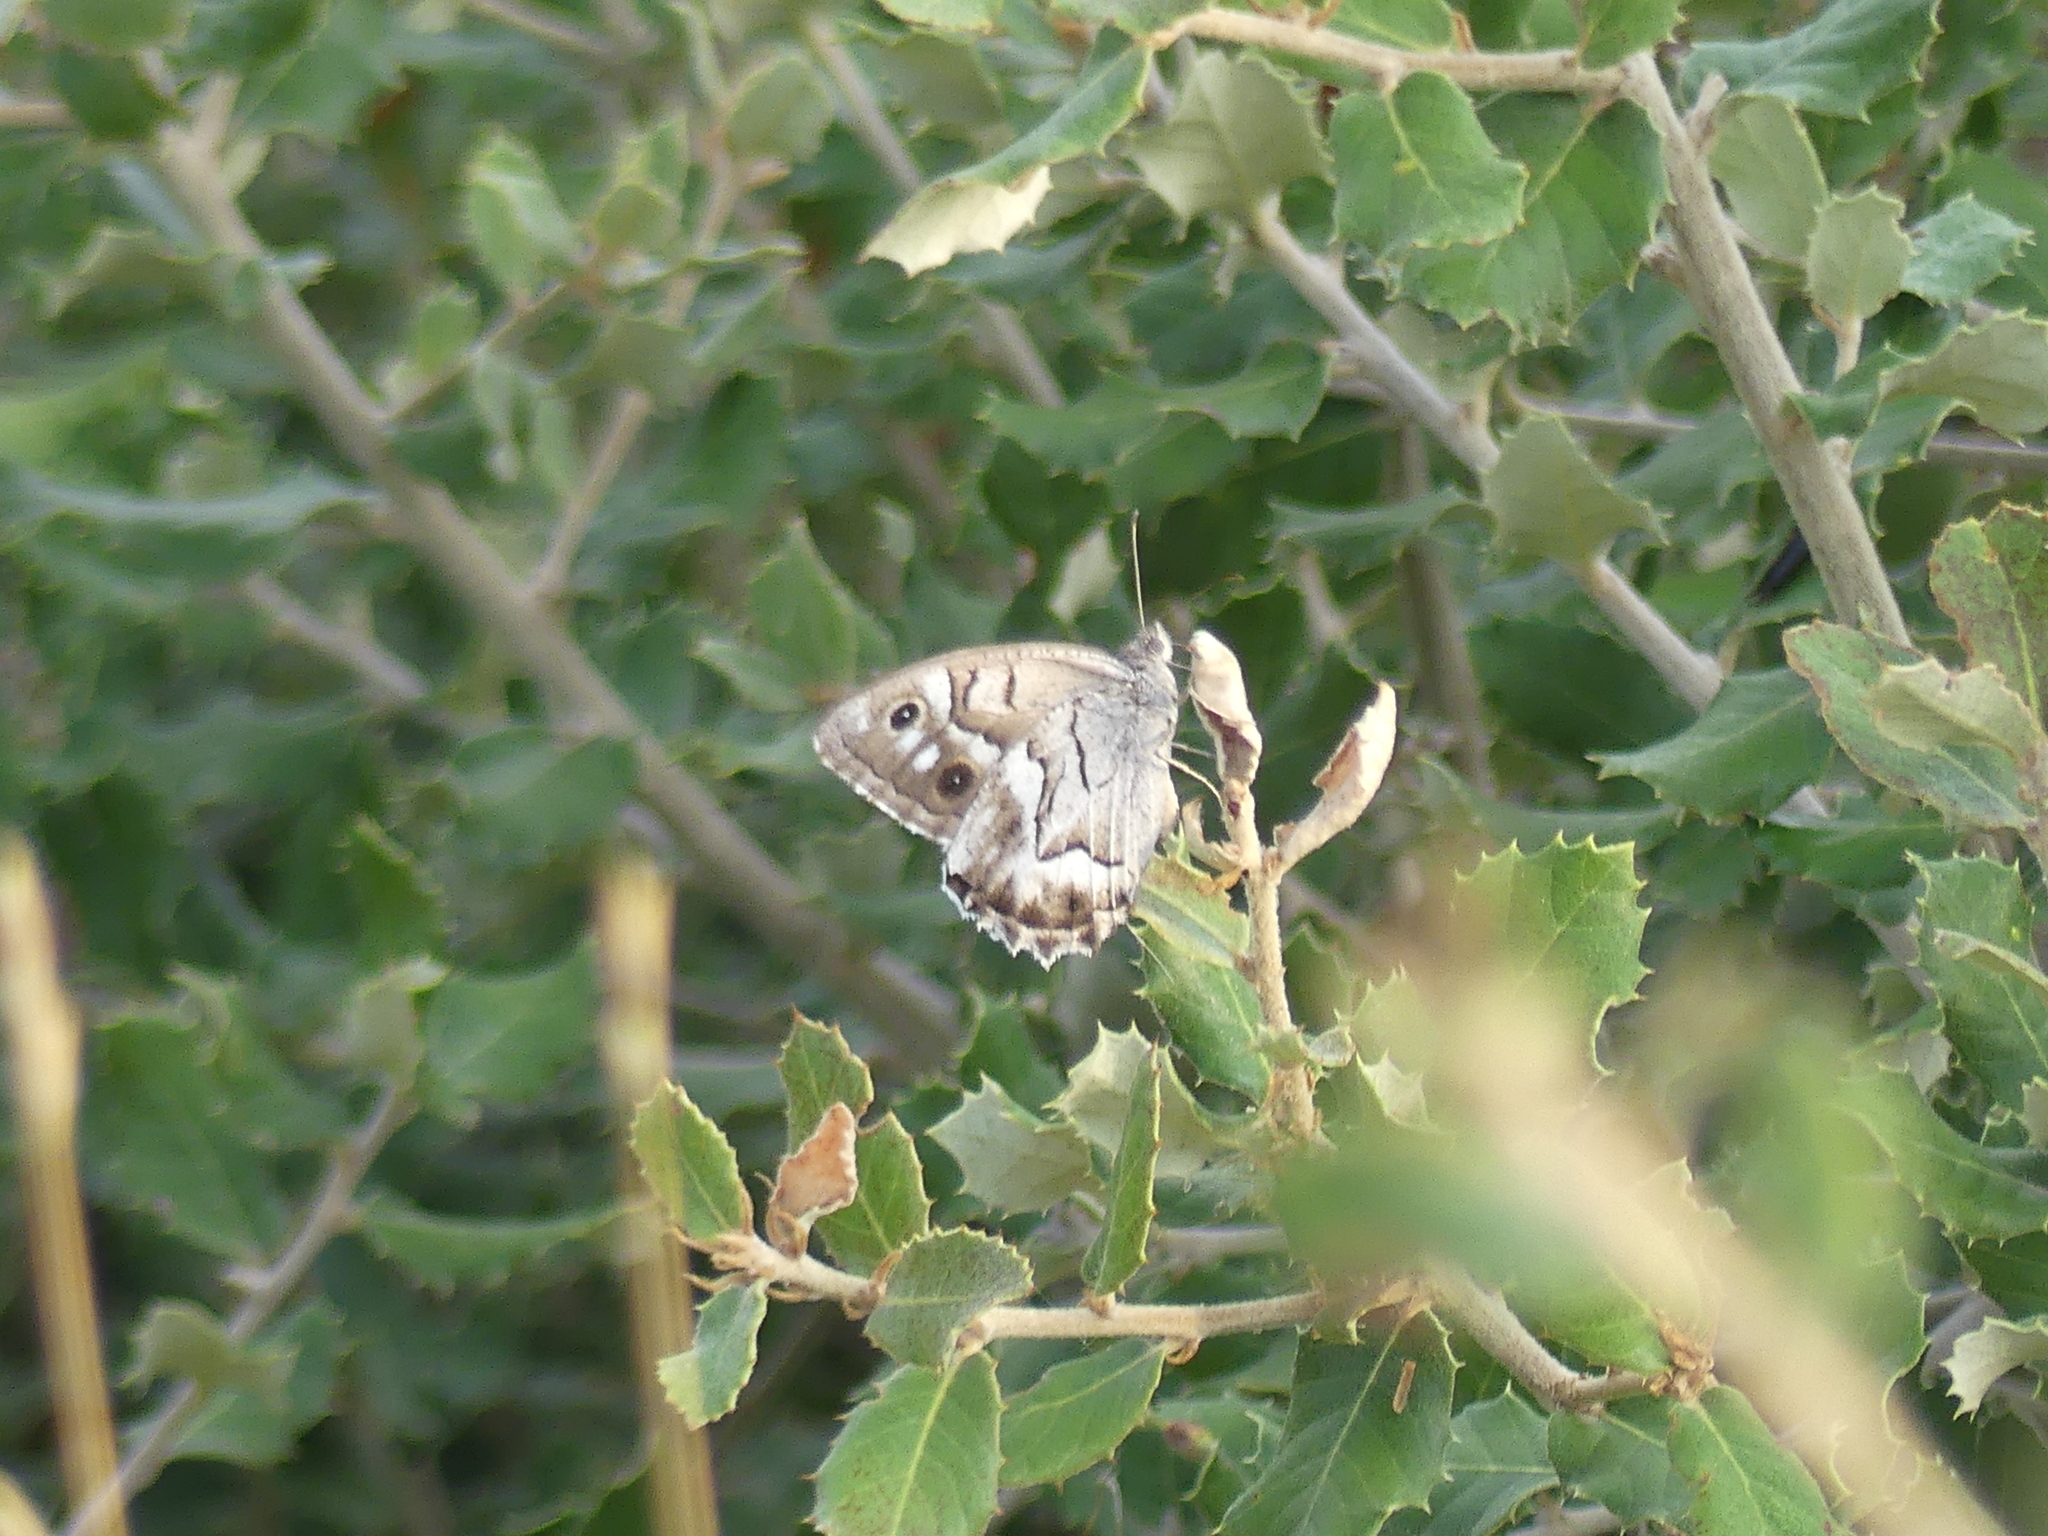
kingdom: Animalia
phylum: Arthropoda
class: Insecta
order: Lepidoptera
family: Nymphalidae
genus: Hipparchia
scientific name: Hipparchia fidia
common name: Striped grayling
